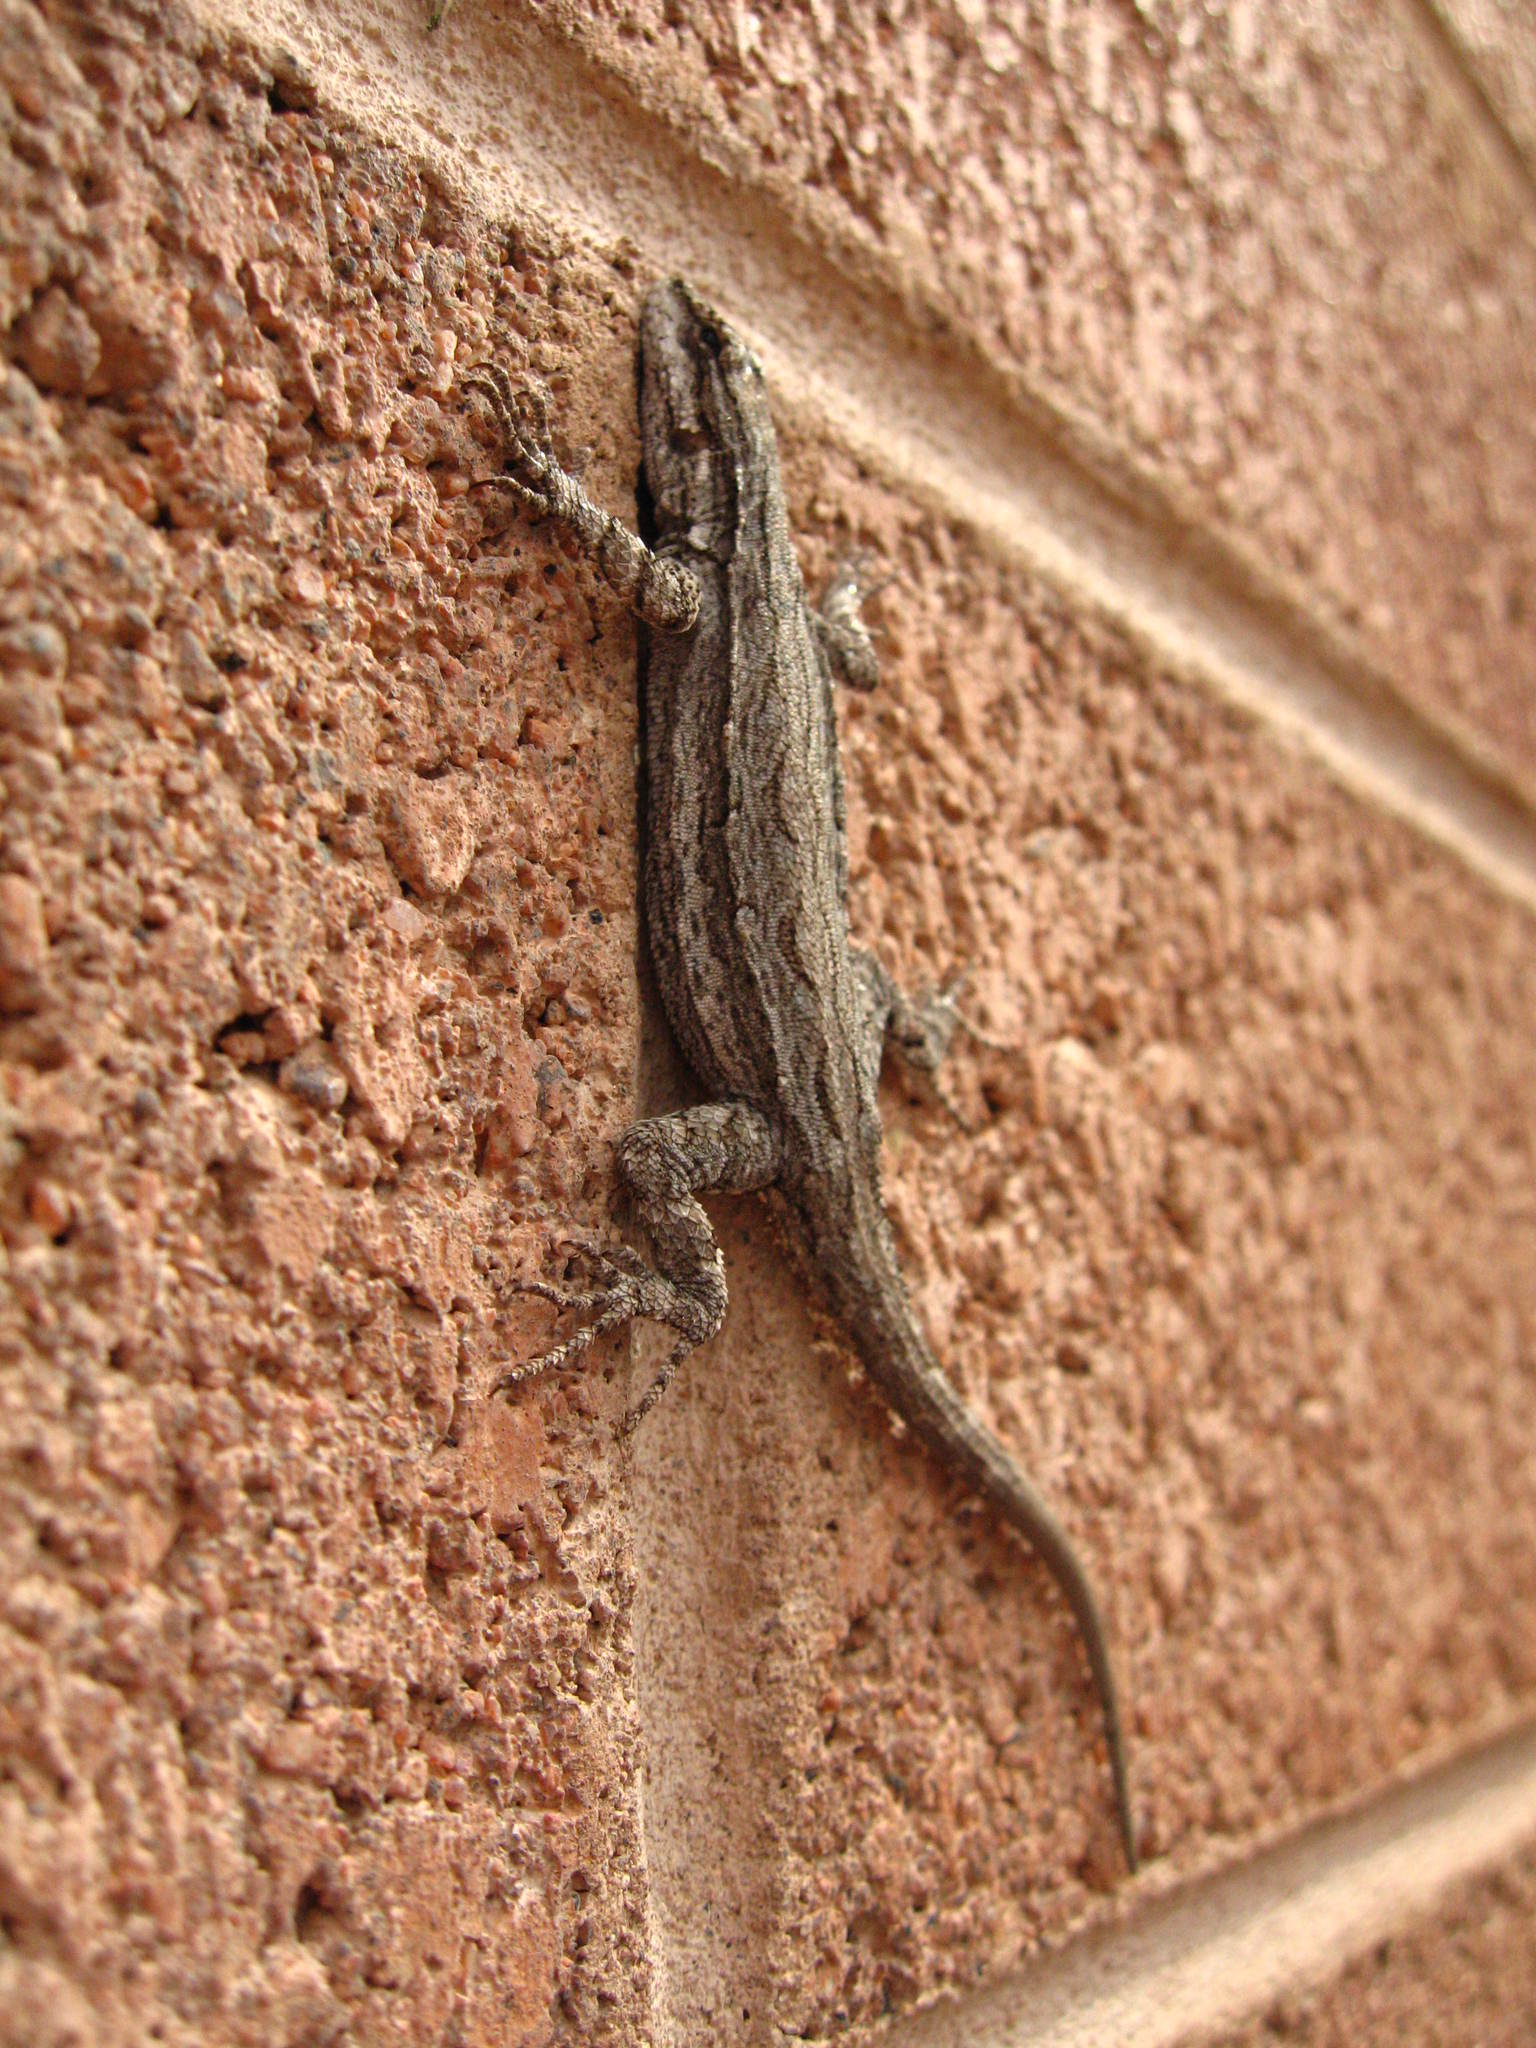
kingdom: Animalia
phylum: Chordata
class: Squamata
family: Phrynosomatidae
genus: Urosaurus
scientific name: Urosaurus ornatus
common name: Ornate tree lizard
